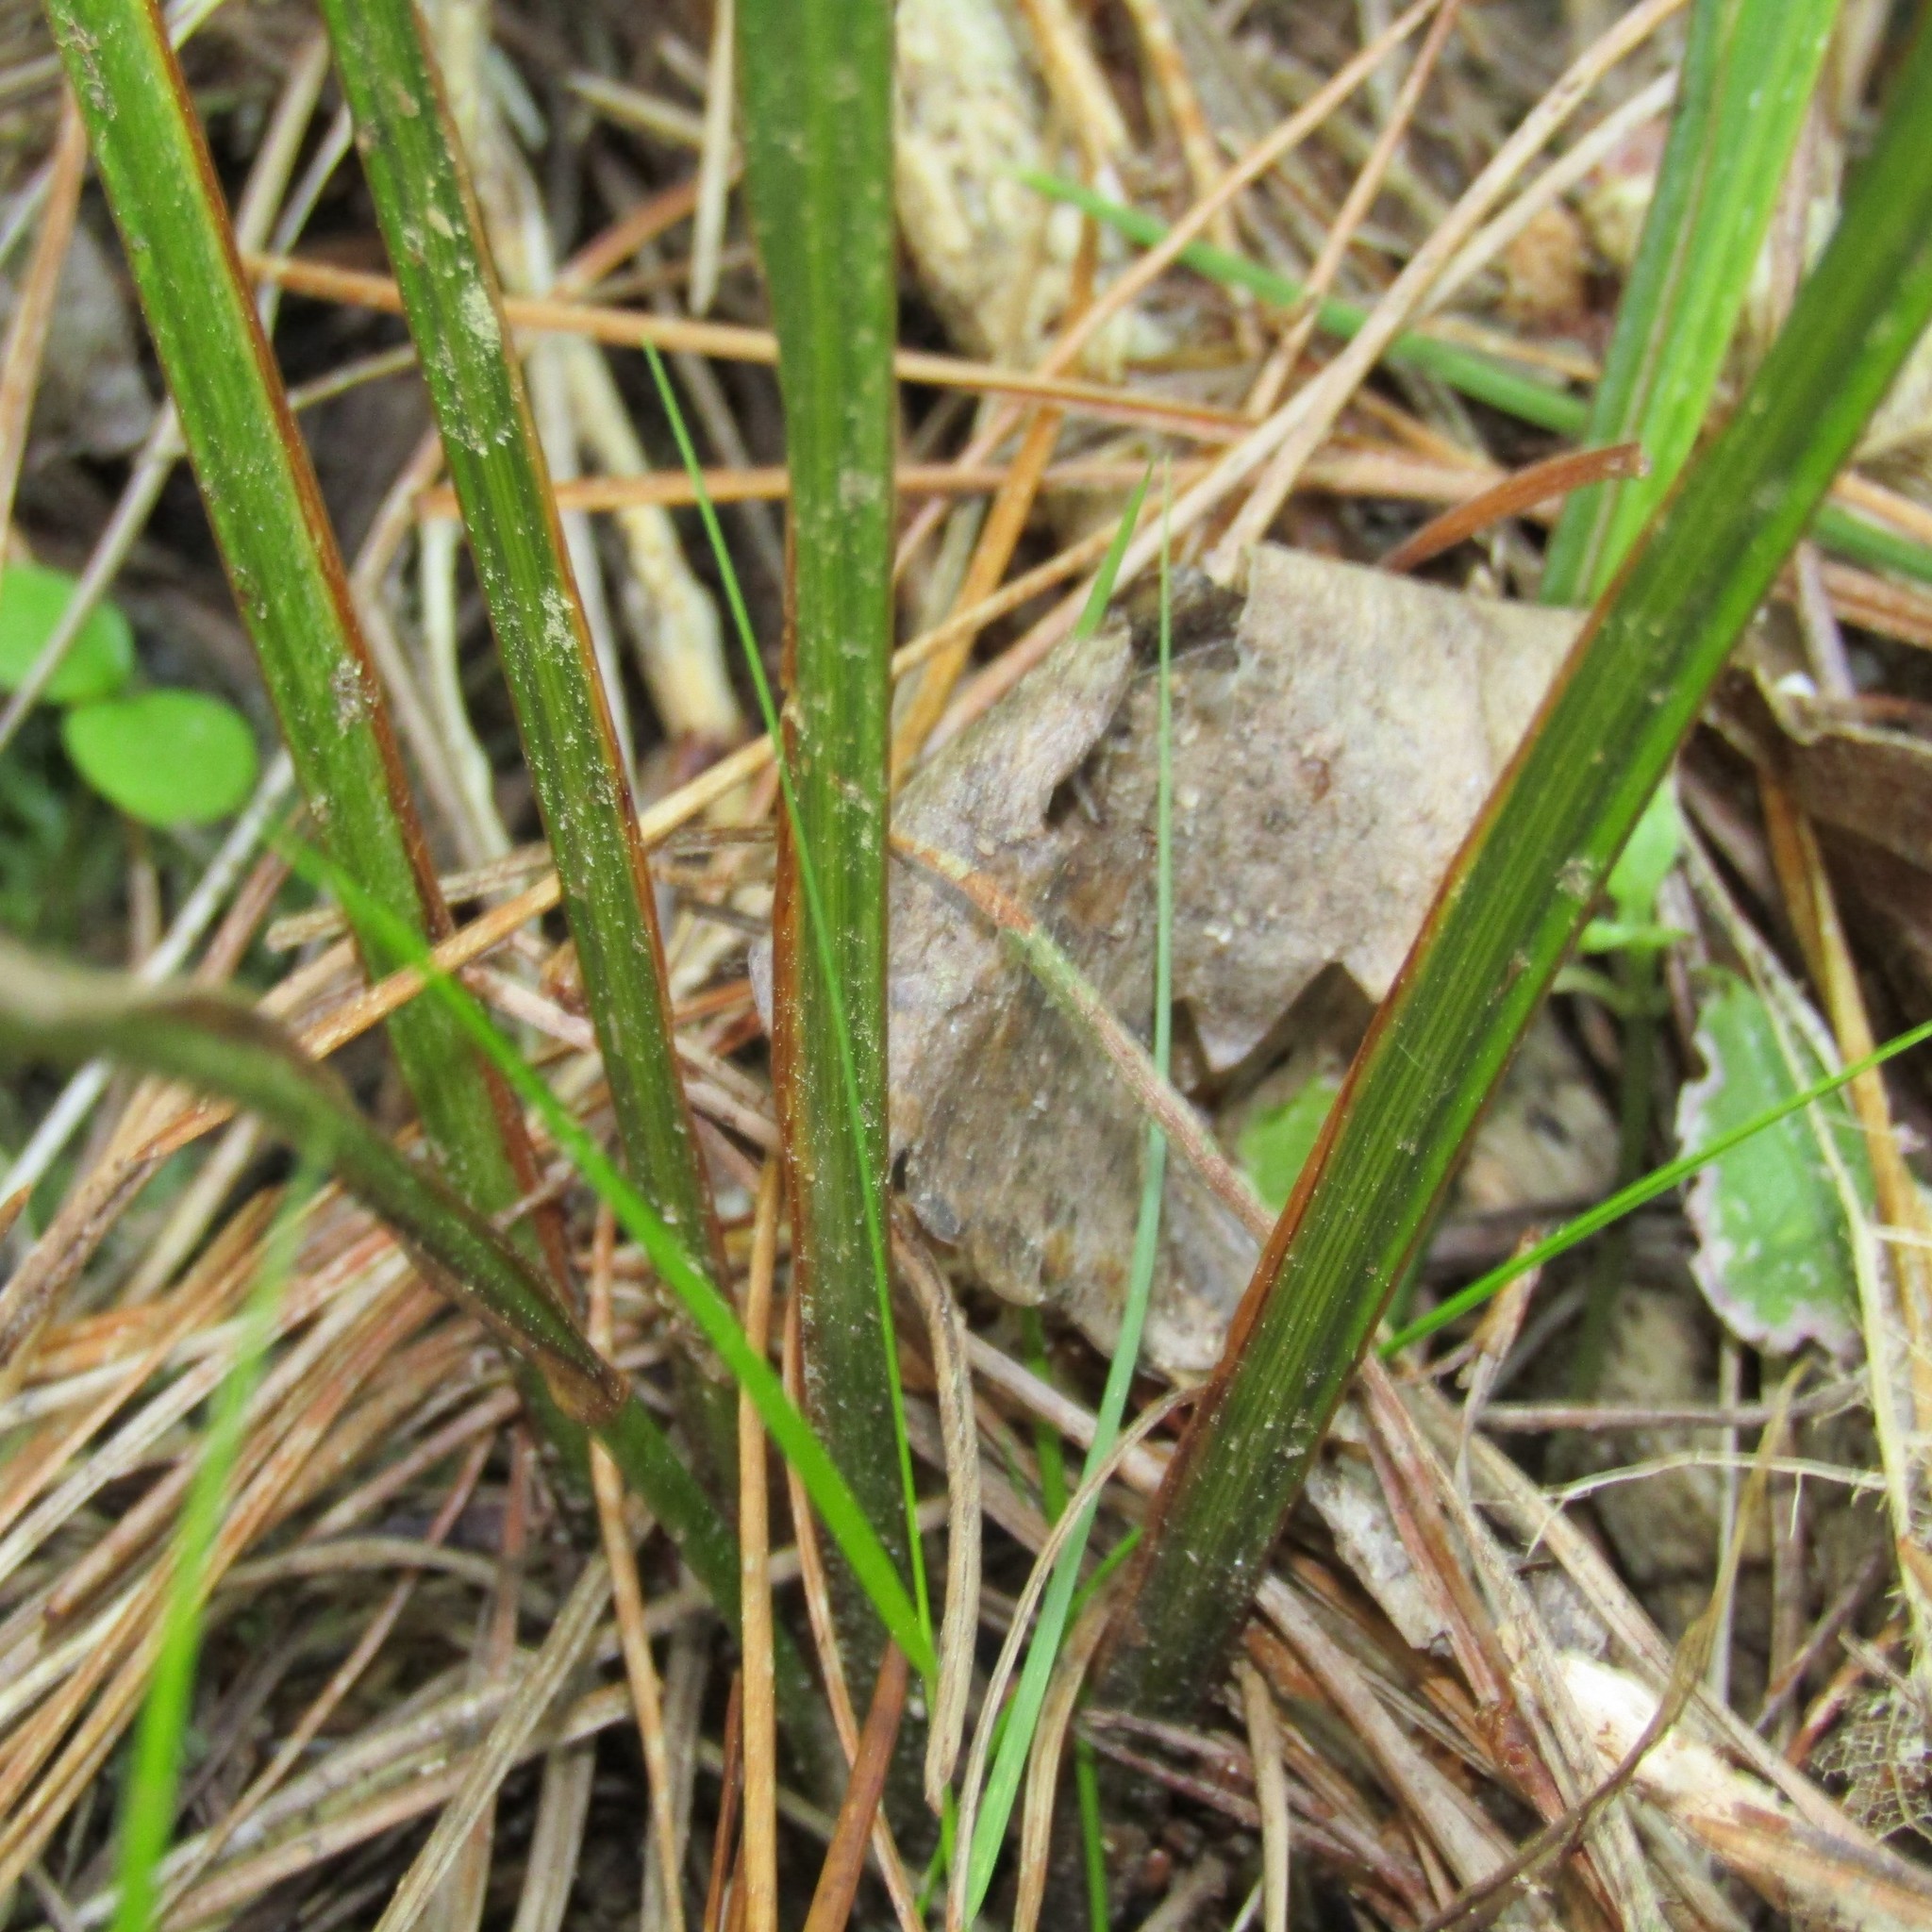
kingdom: Plantae
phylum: Tracheophyta
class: Liliopsida
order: Asparagales
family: Iridaceae
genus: Libertia
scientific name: Libertia ixioides
